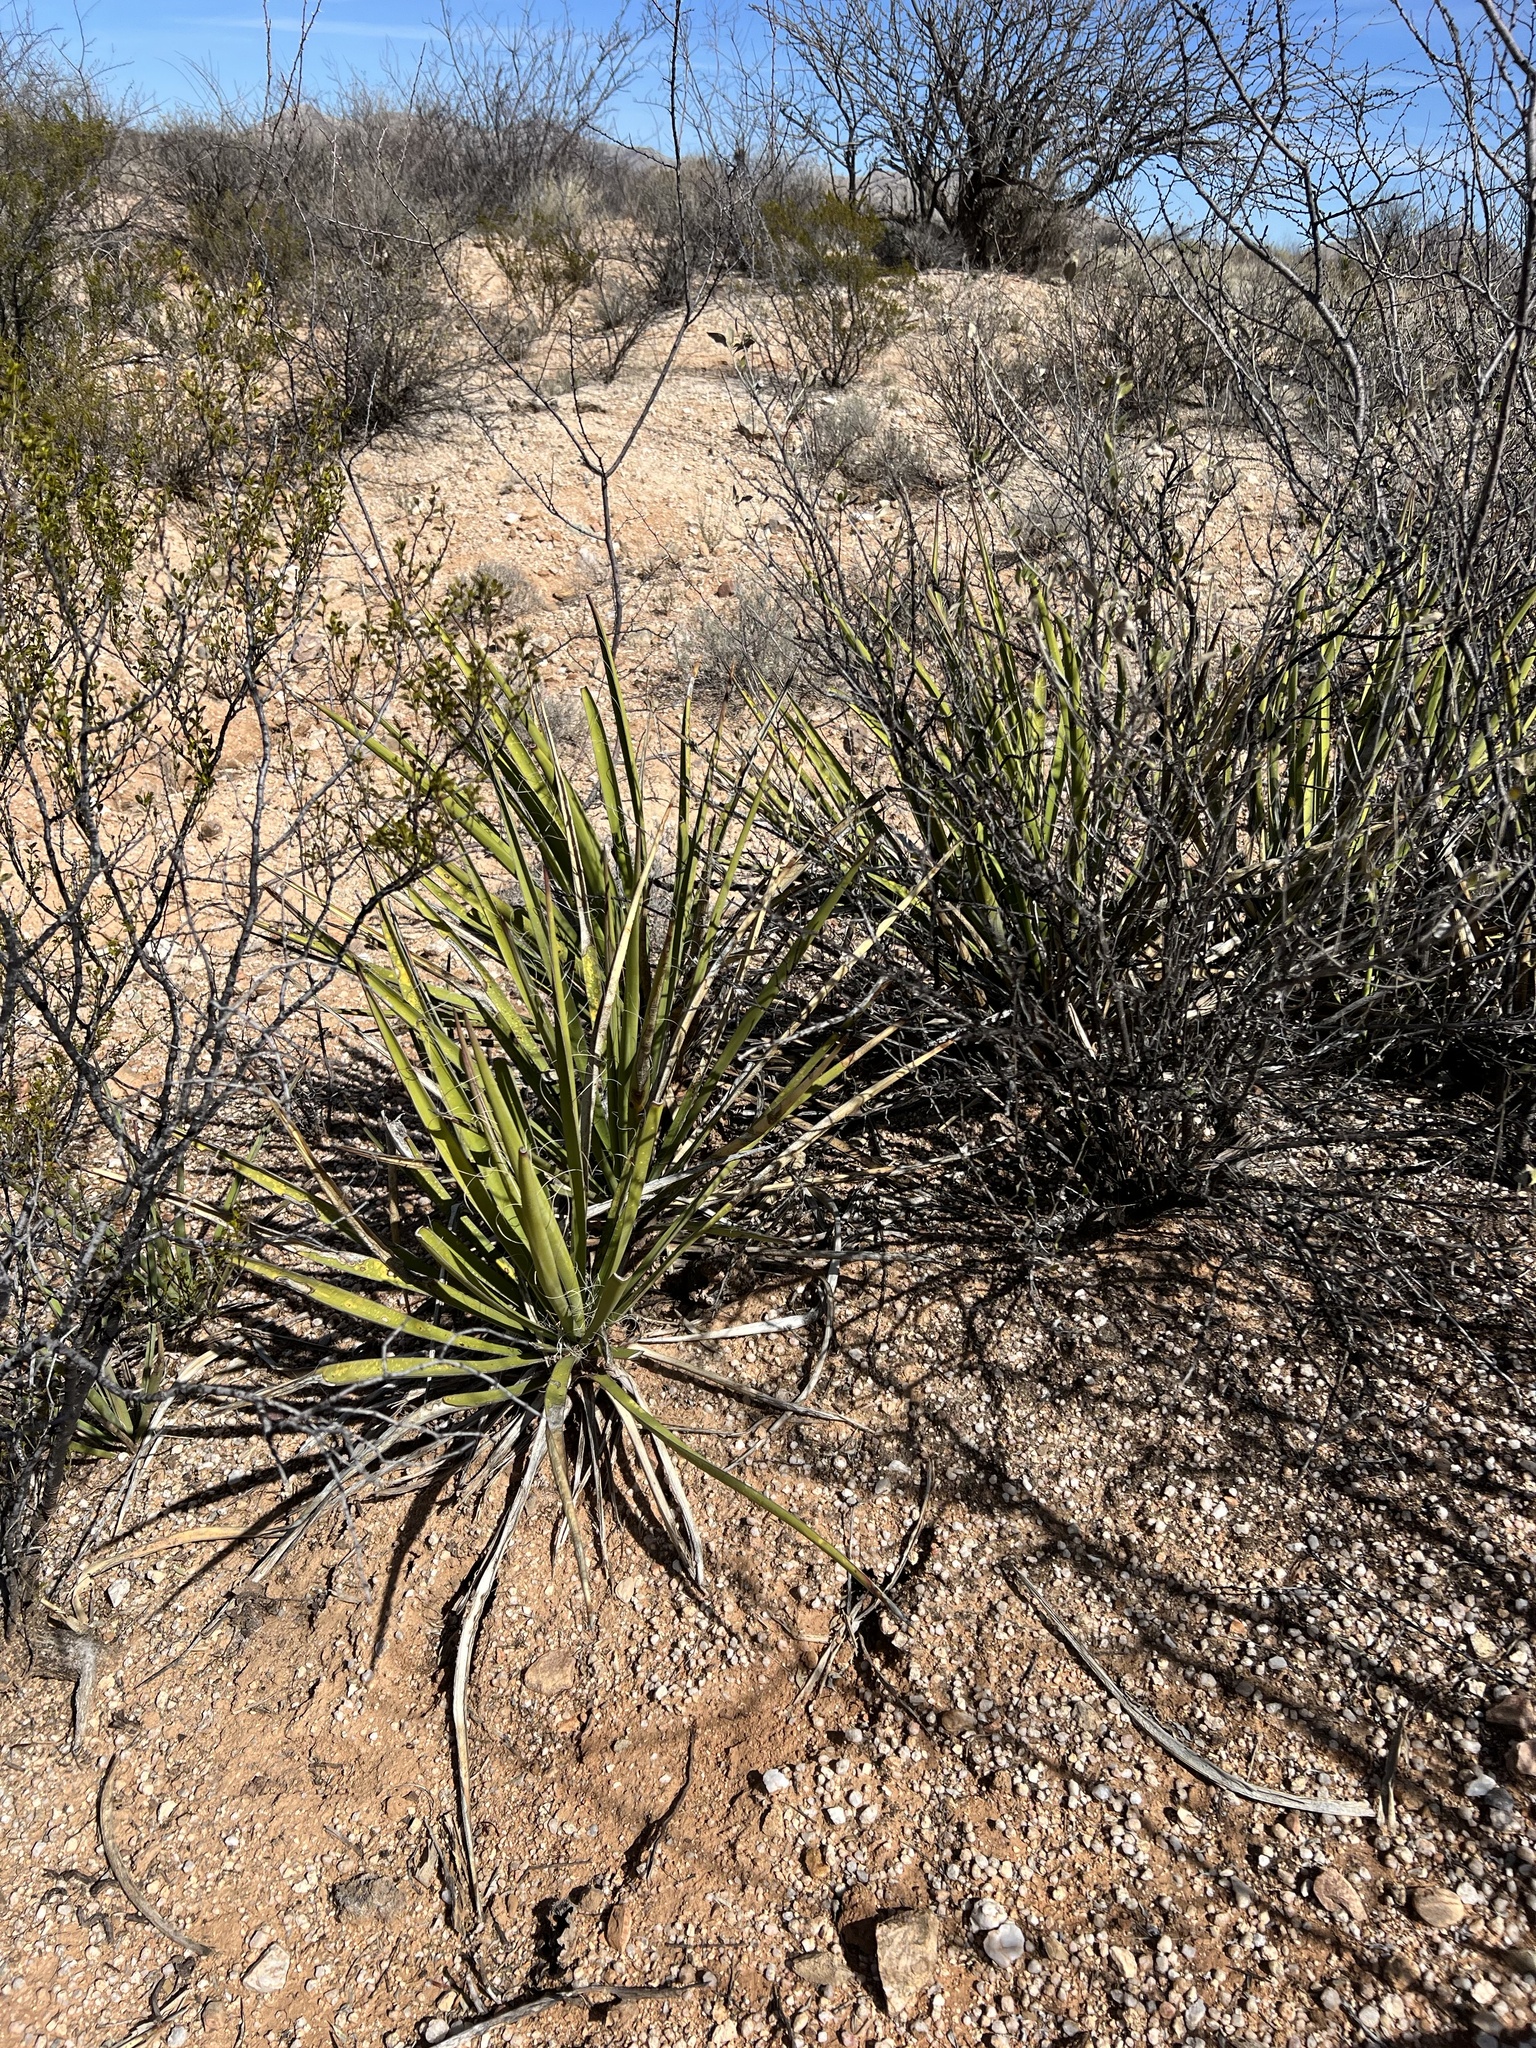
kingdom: Plantae
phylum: Tracheophyta
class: Liliopsida
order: Asparagales
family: Asparagaceae
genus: Yucca
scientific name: Yucca baccata
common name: Banana yucca
